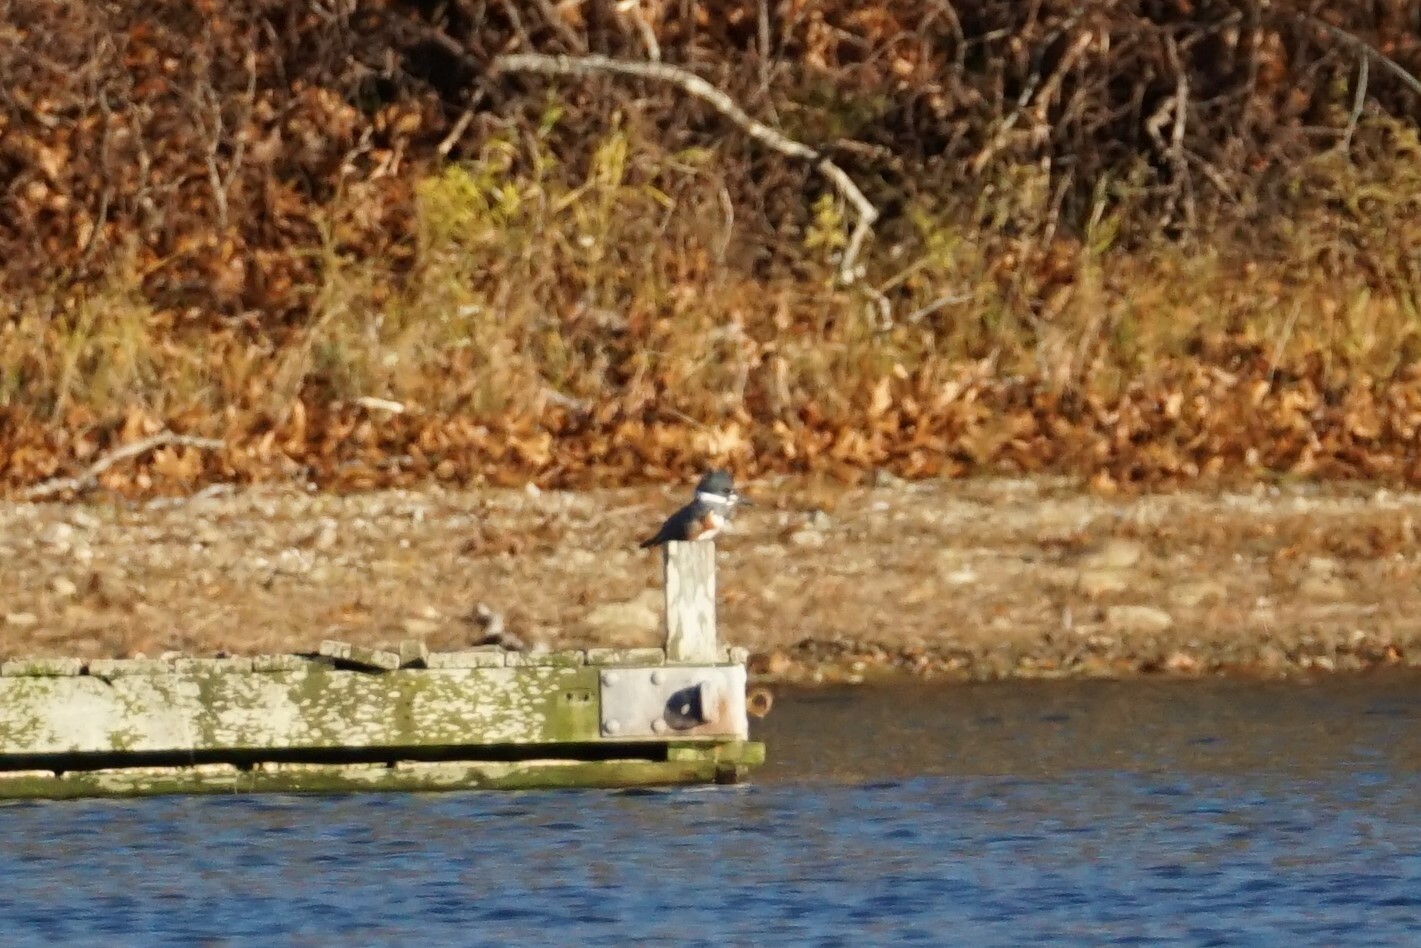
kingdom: Animalia
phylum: Chordata
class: Aves
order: Coraciiformes
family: Alcedinidae
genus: Megaceryle
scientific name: Megaceryle alcyon
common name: Belted kingfisher
